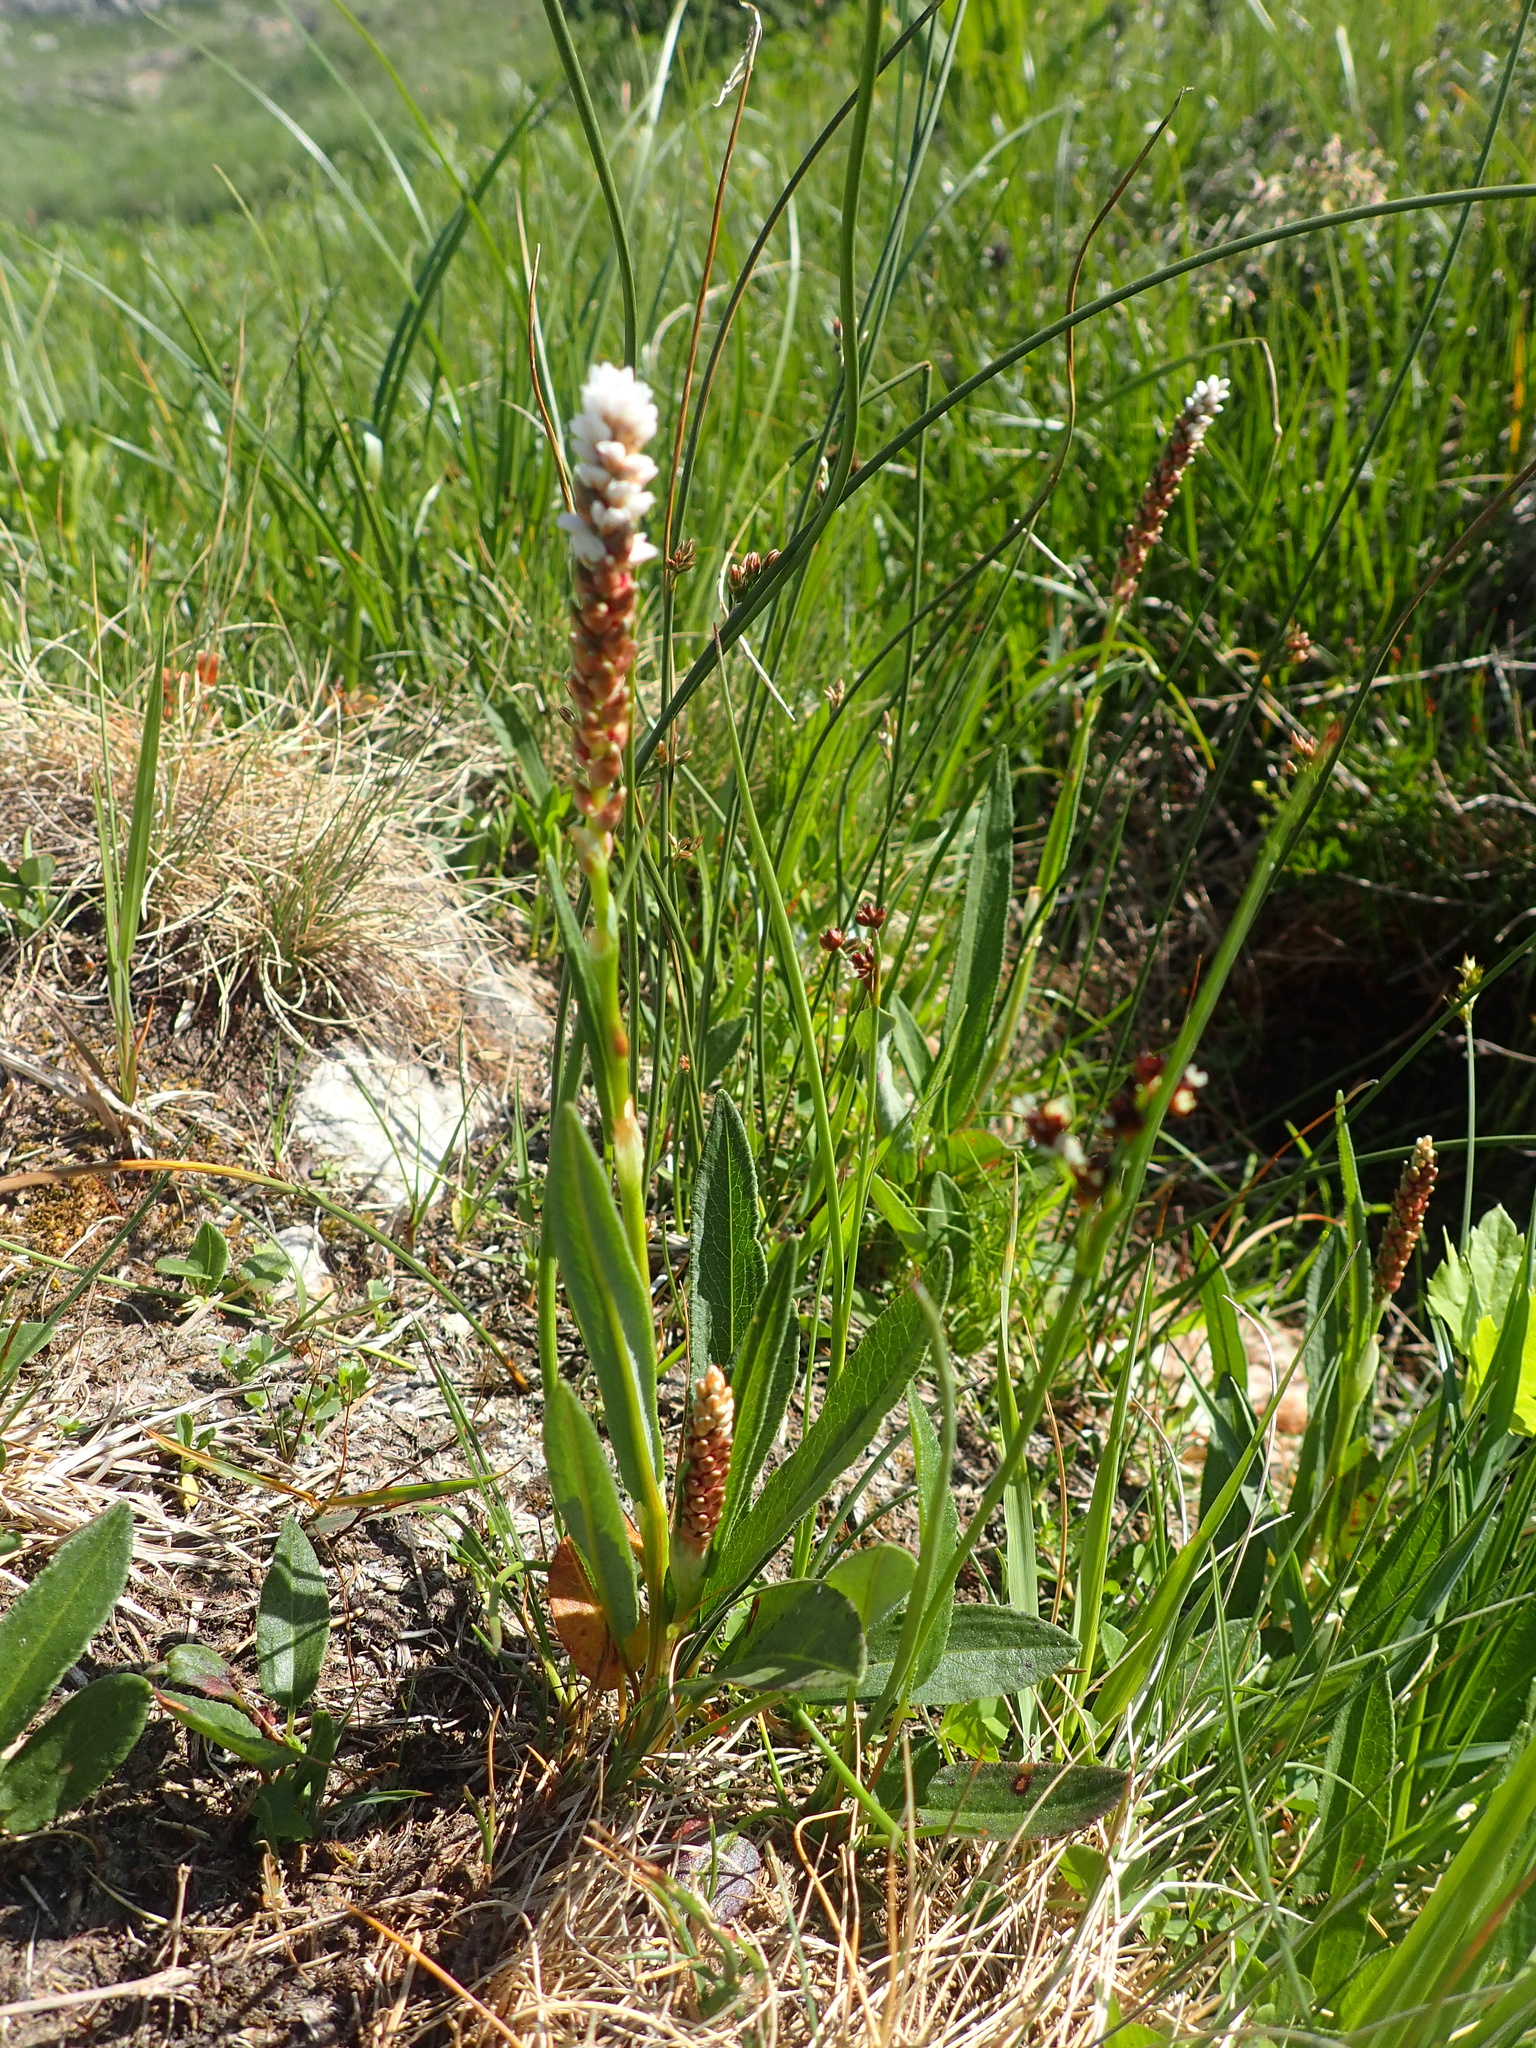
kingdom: Plantae
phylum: Tracheophyta
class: Magnoliopsida
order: Caryophyllales
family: Polygonaceae
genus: Bistorta
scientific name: Bistorta vivipara
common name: Alpine bistort
